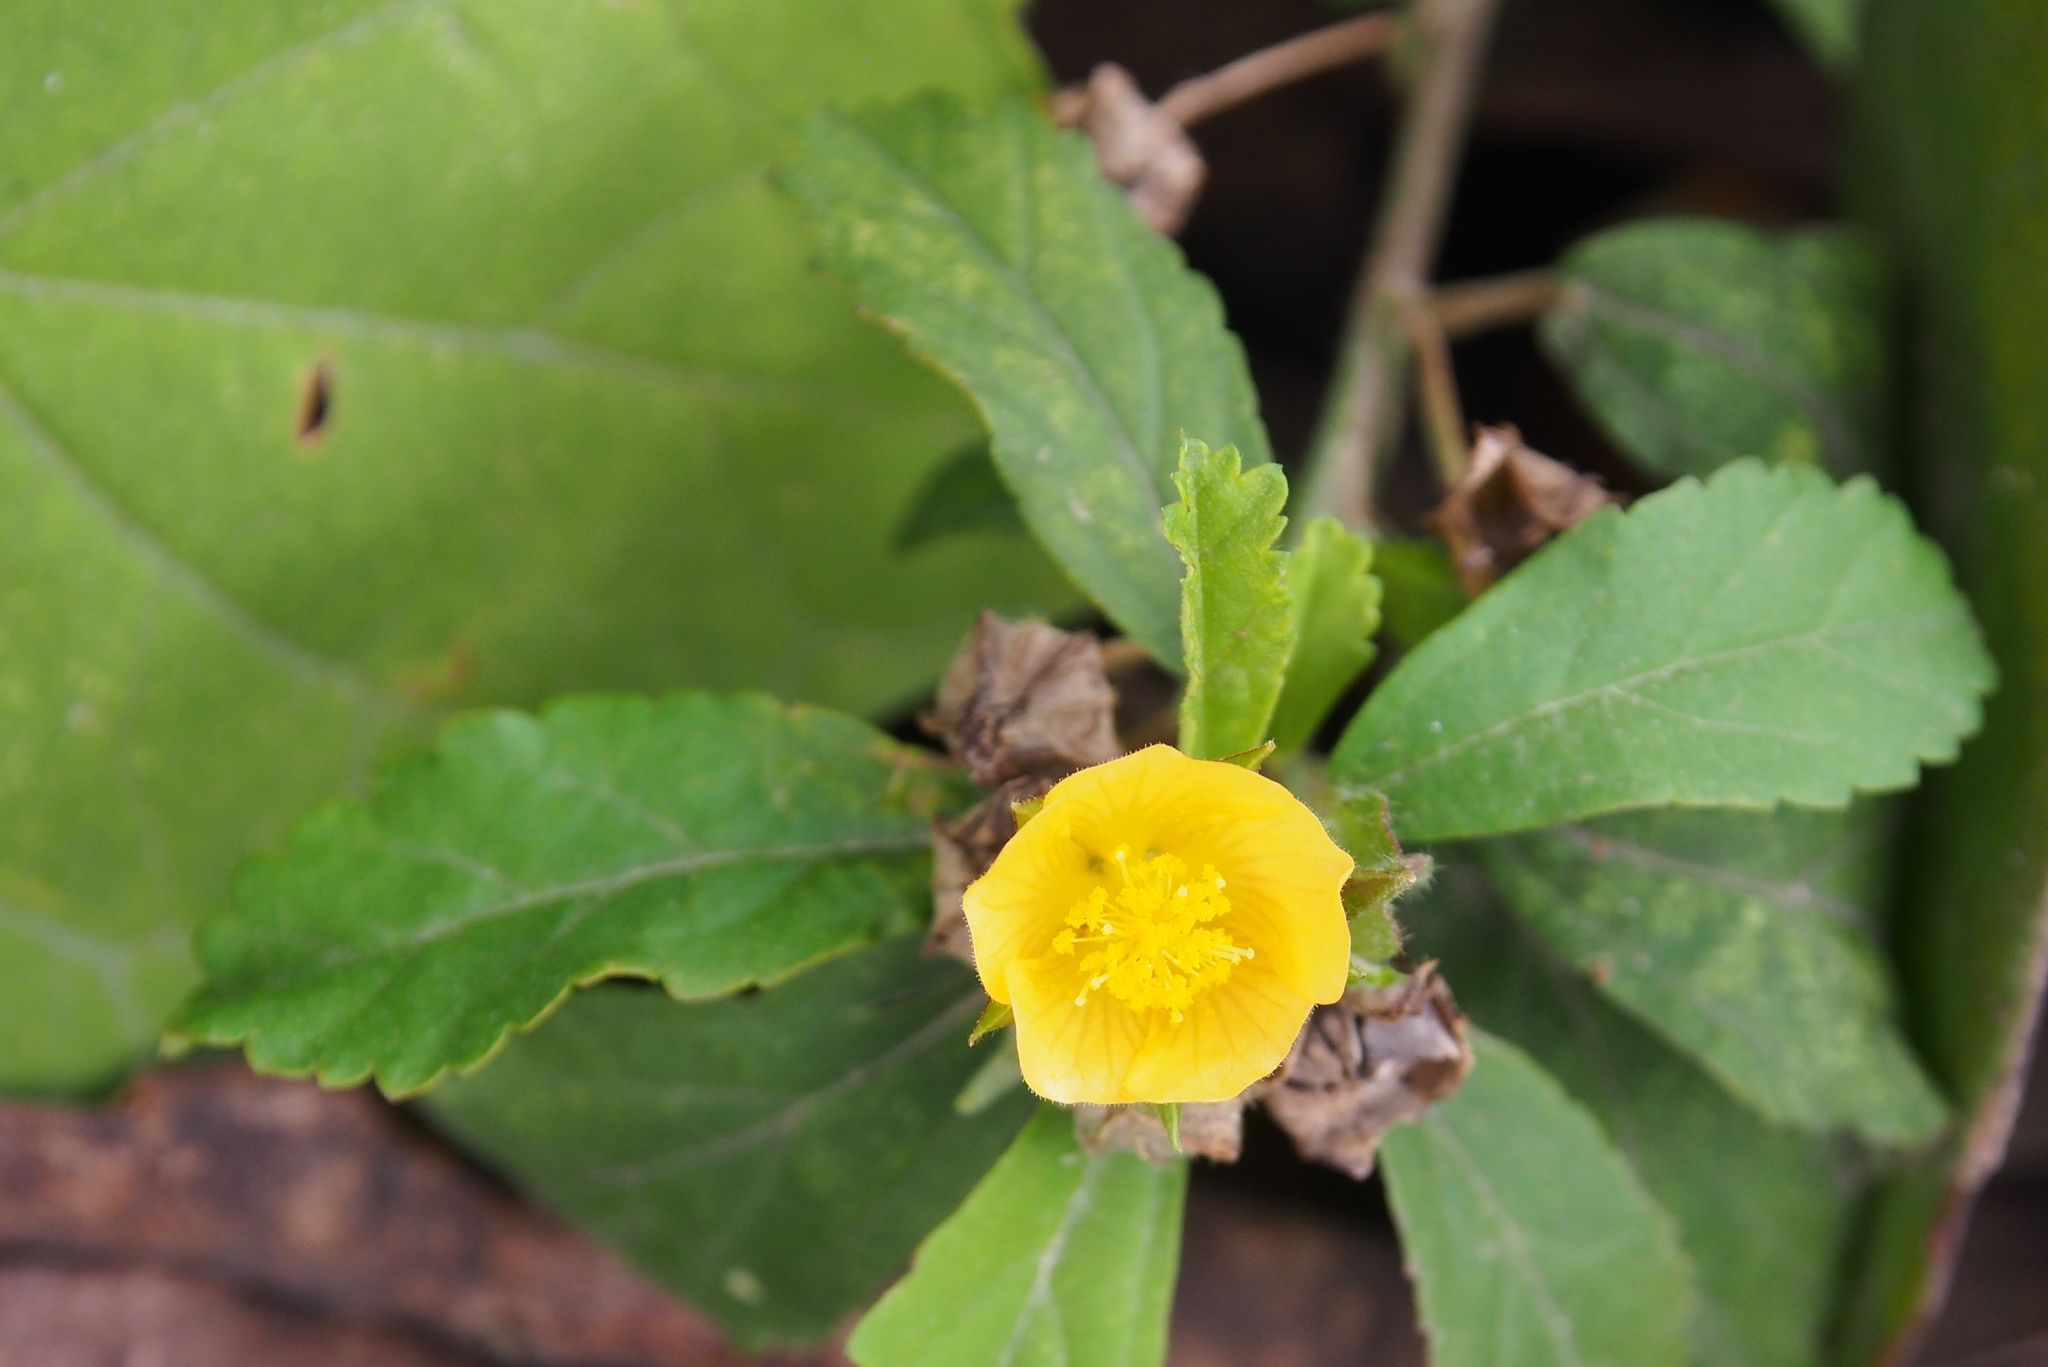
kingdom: Plantae
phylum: Tracheophyta
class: Magnoliopsida
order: Malvales
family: Malvaceae
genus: Sida
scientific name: Sida rhombifolia
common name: Queensland-hemp
